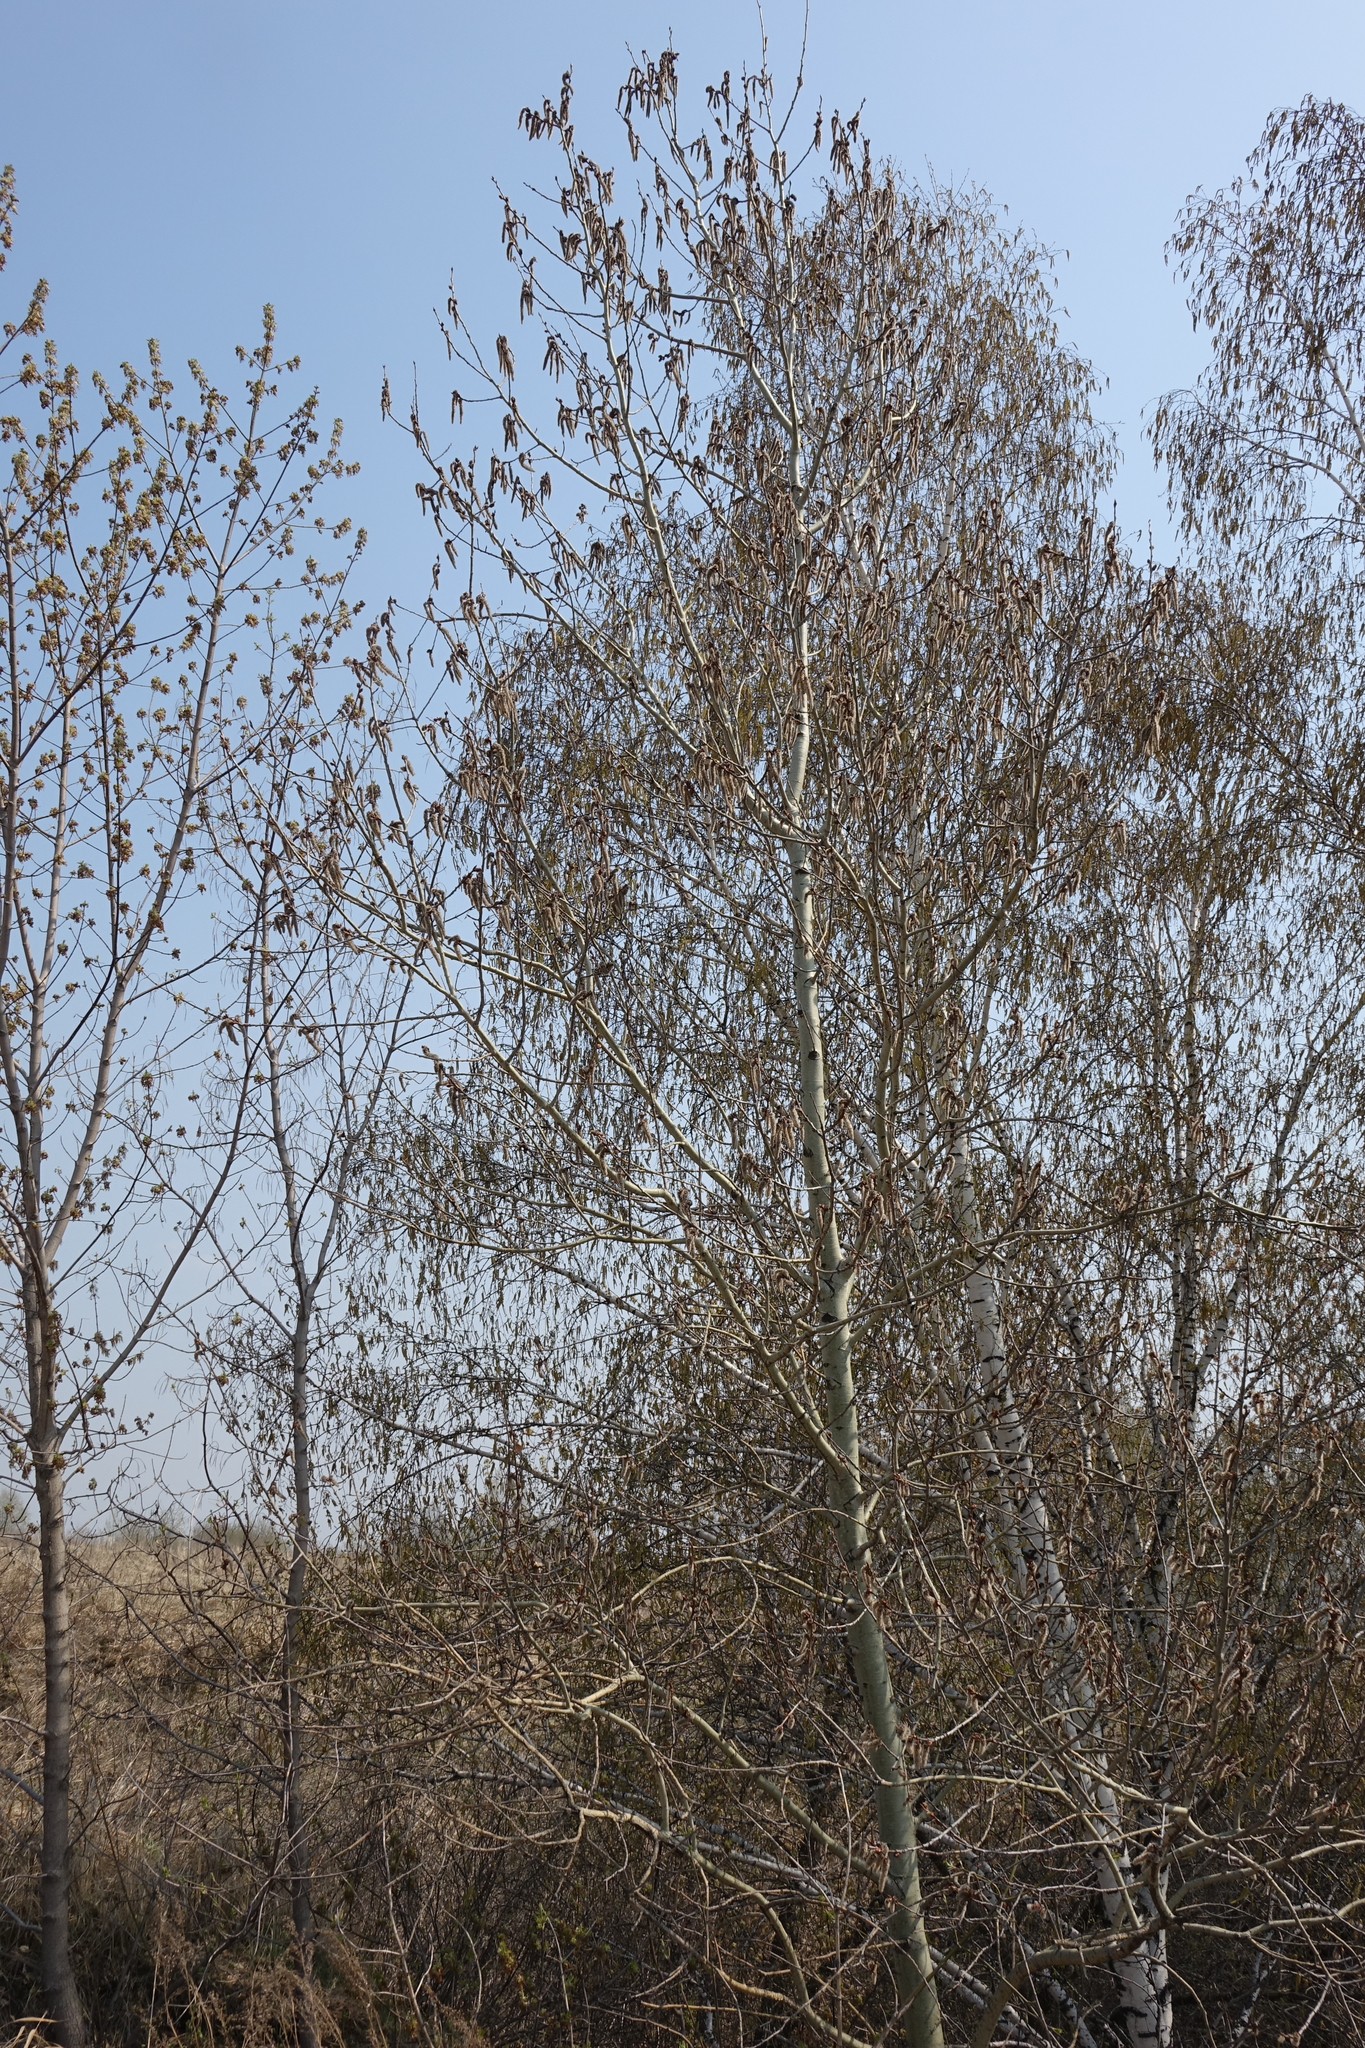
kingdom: Plantae
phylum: Tracheophyta
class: Magnoliopsida
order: Sapindales
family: Sapindaceae
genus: Acer
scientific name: Acer negundo
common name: Ashleaf maple
